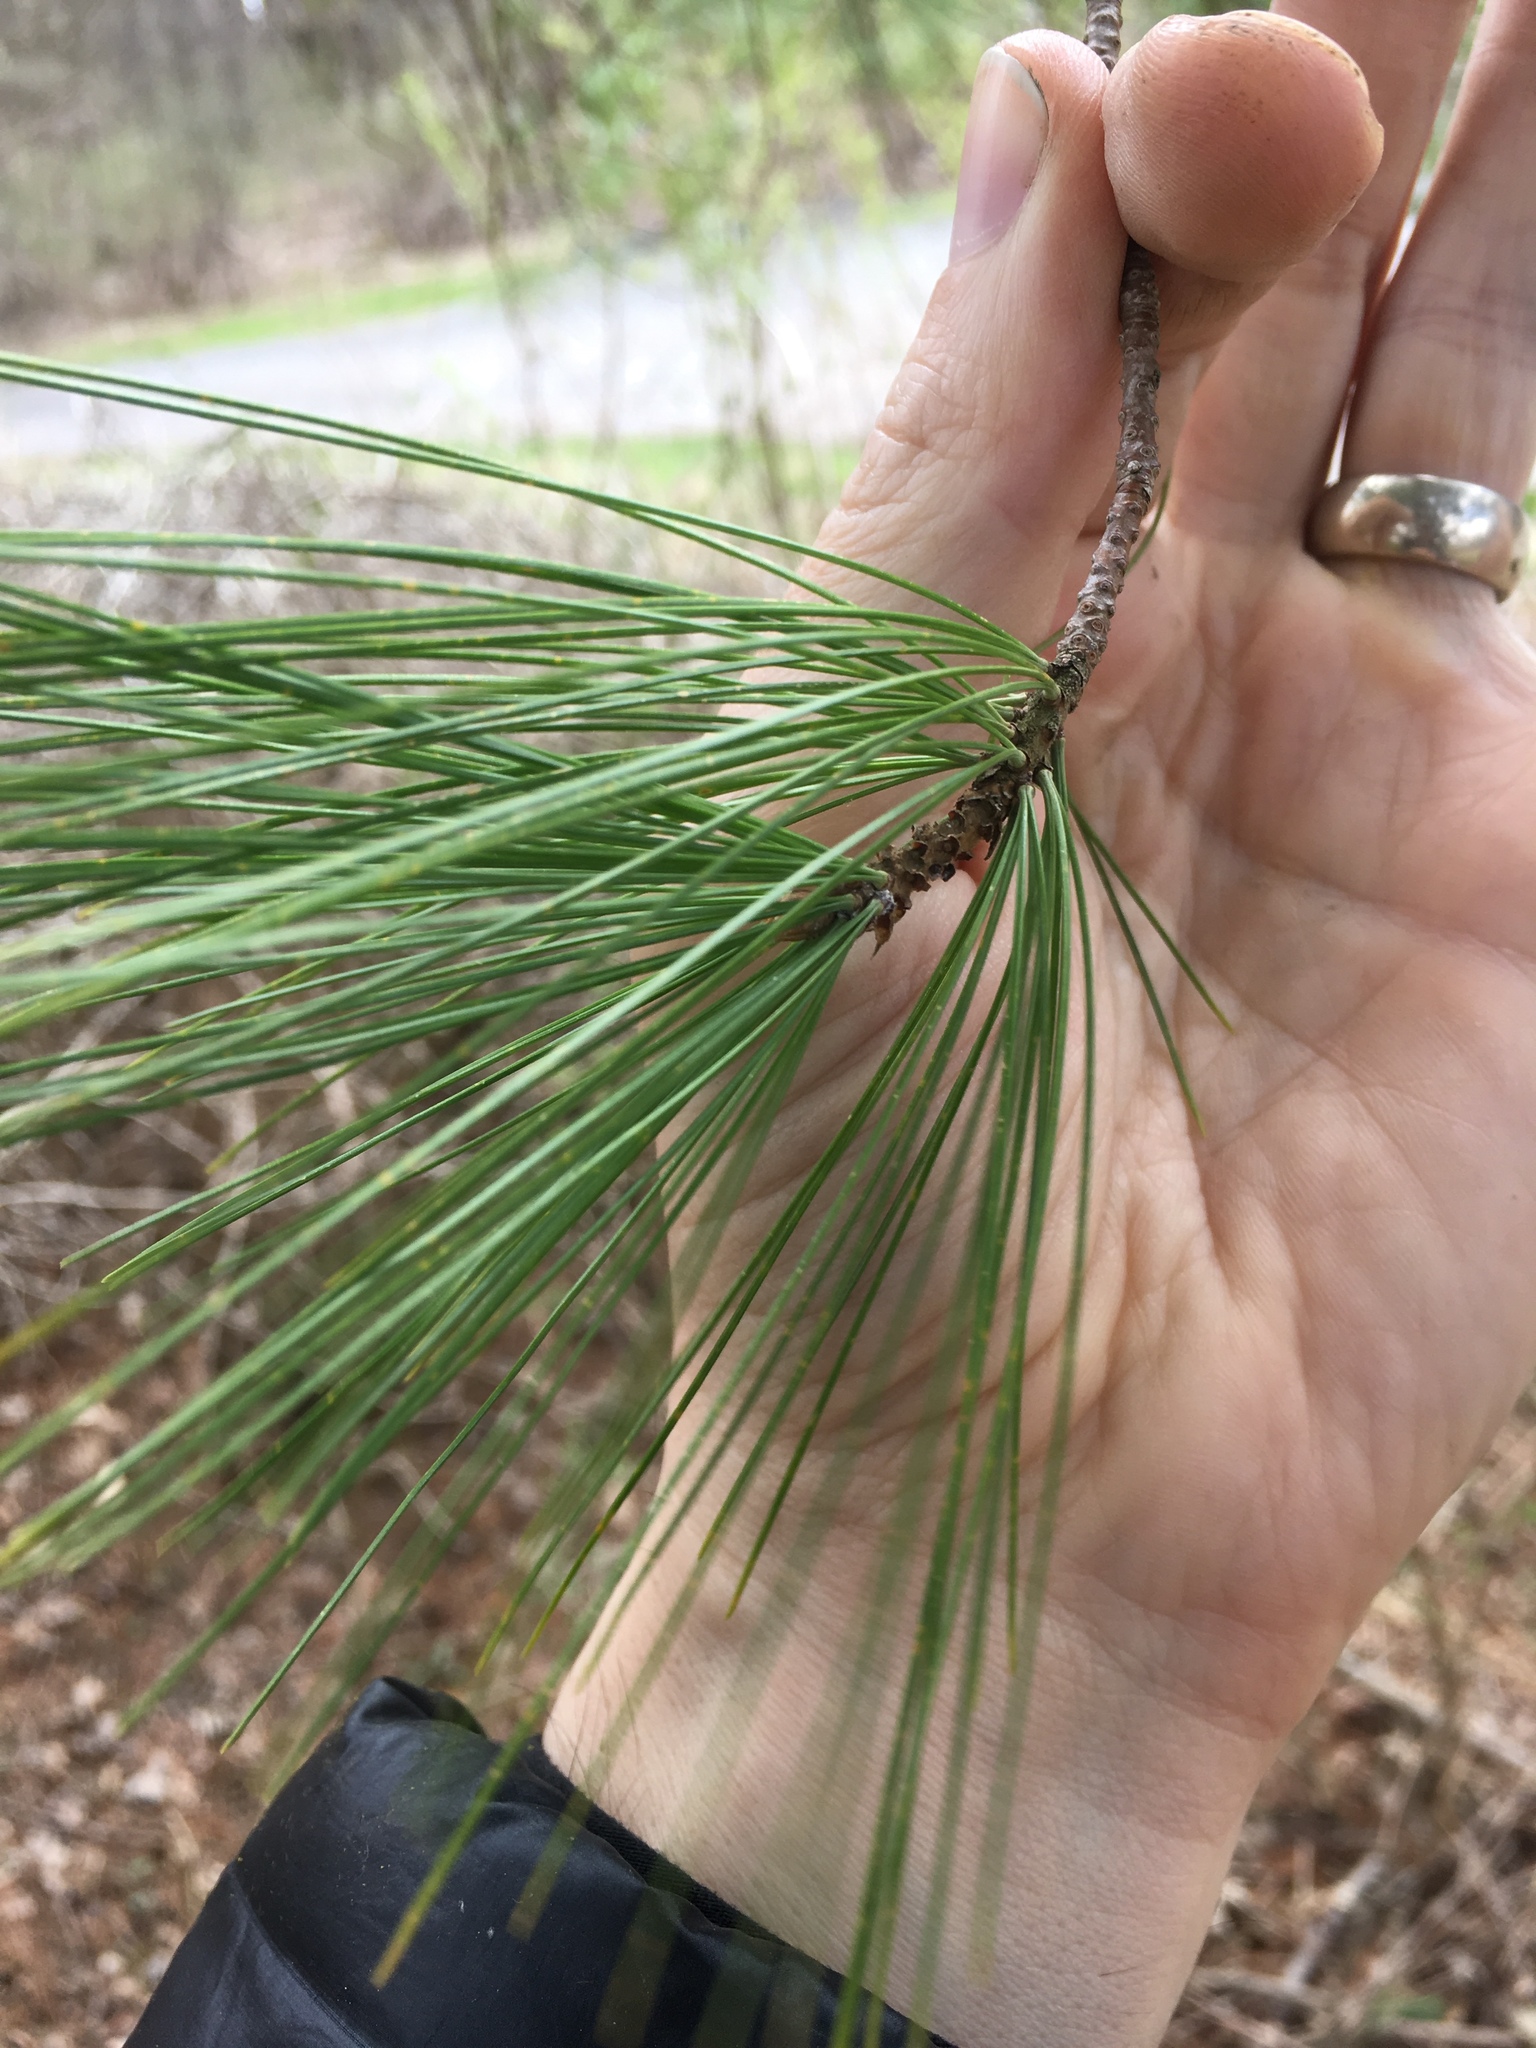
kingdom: Plantae
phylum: Tracheophyta
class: Pinopsida
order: Pinales
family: Pinaceae
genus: Pinus
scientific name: Pinus strobus
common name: Weymouth pine
